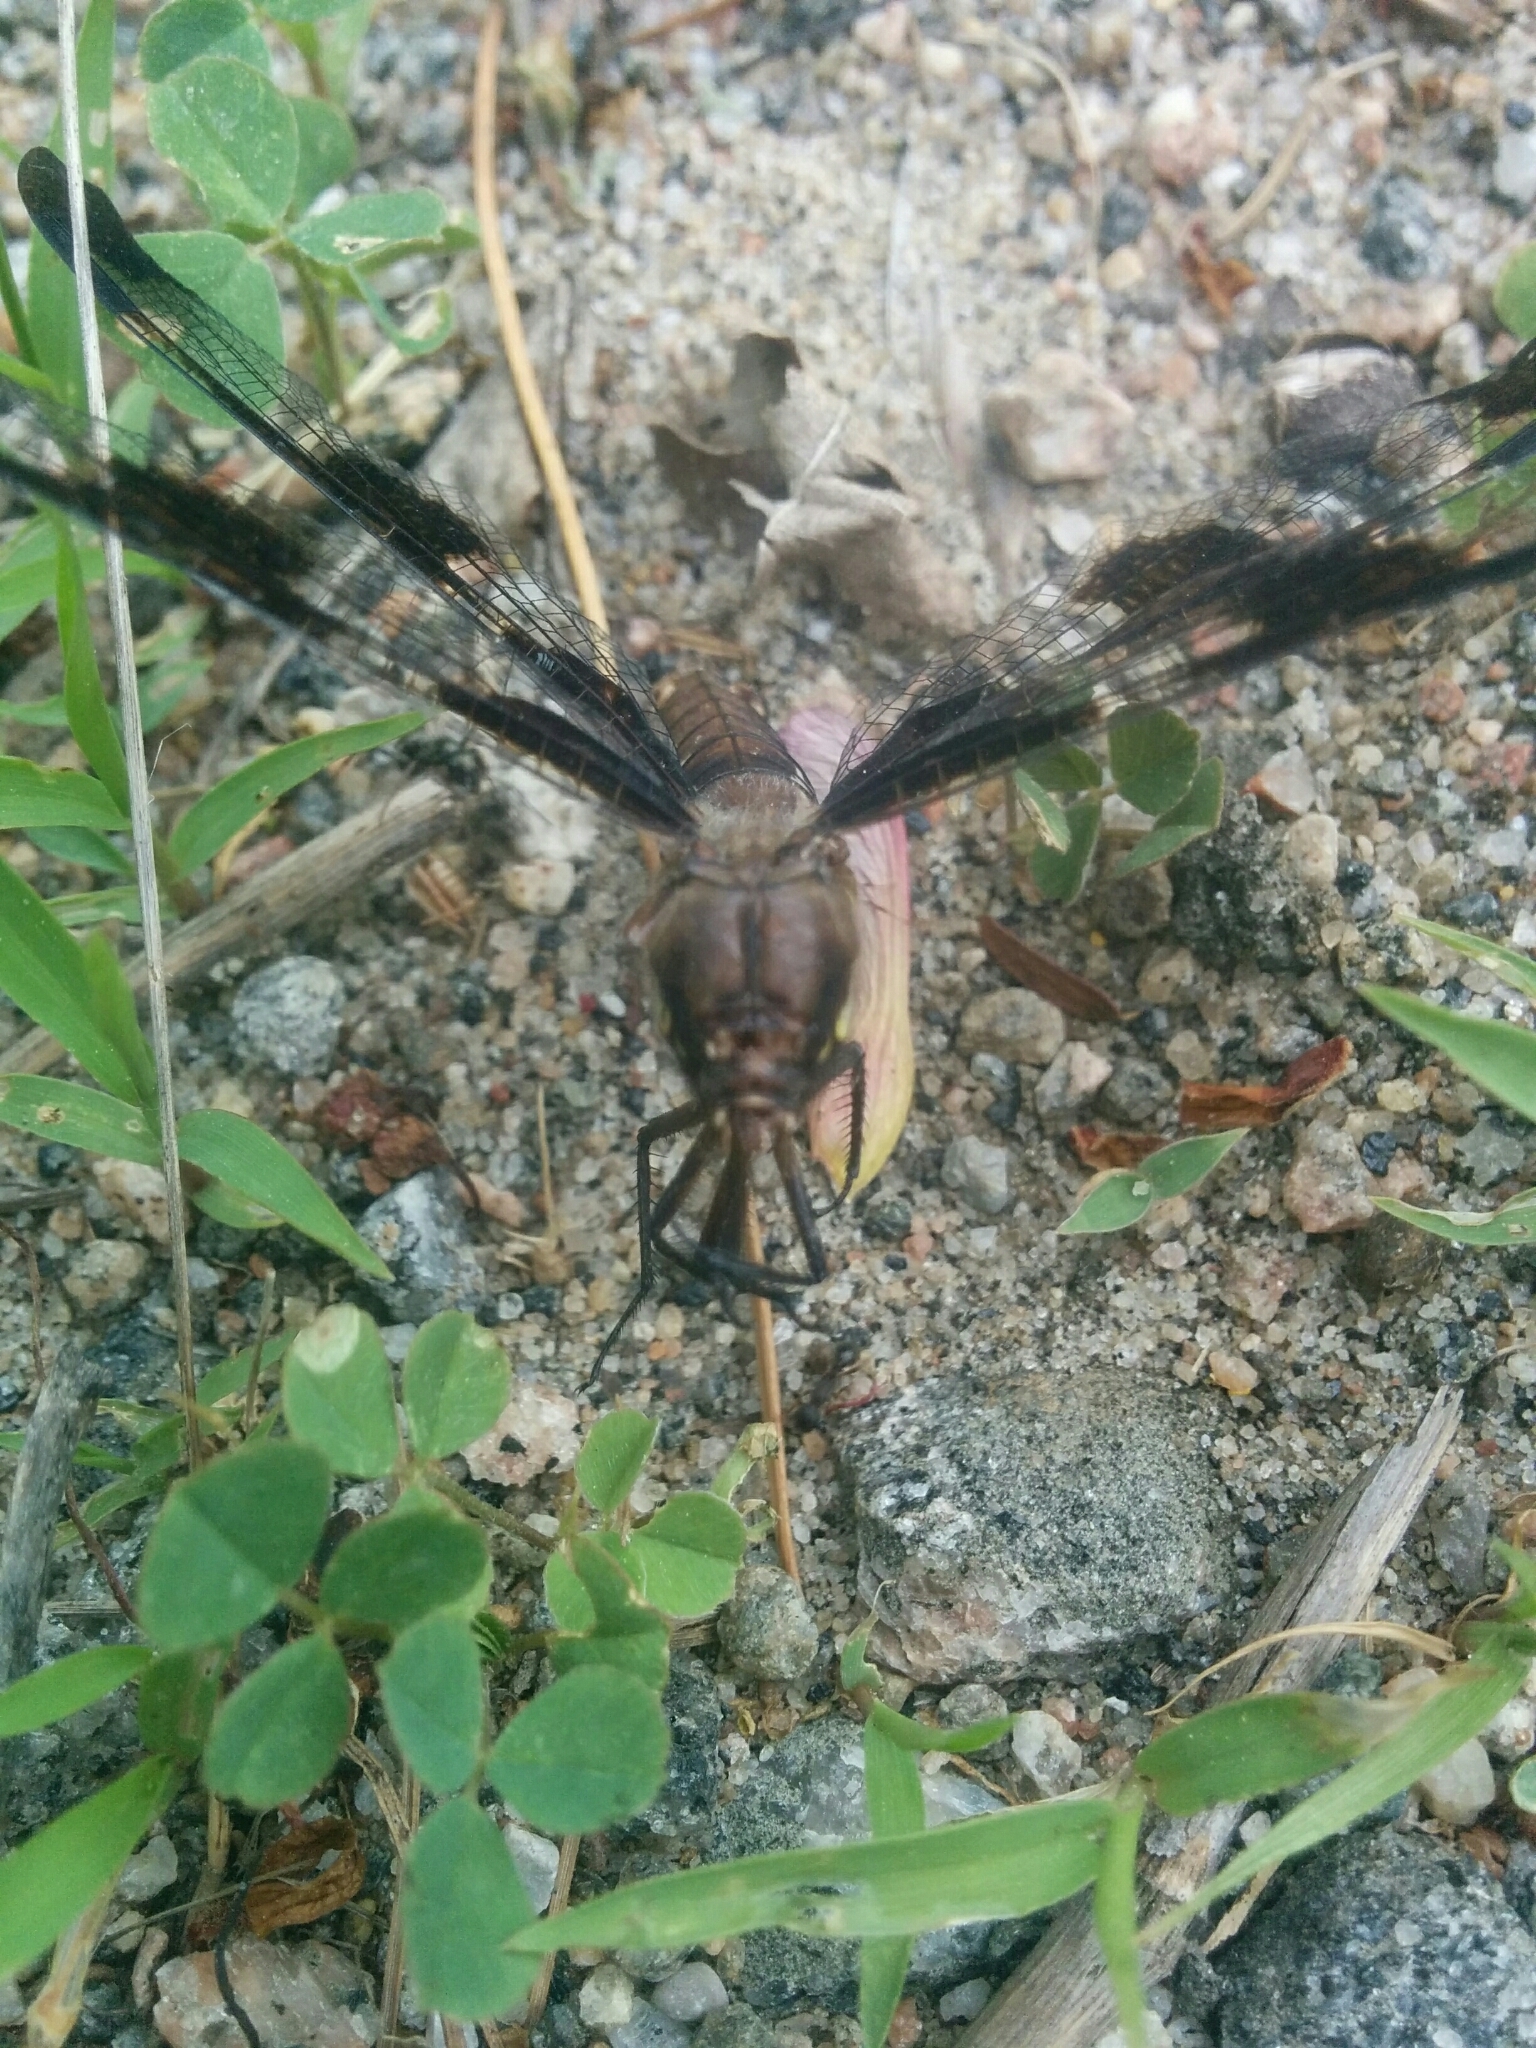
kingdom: Animalia
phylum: Arthropoda
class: Insecta
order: Odonata
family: Libellulidae
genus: Plathemis
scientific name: Plathemis lydia
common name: Common whitetail
